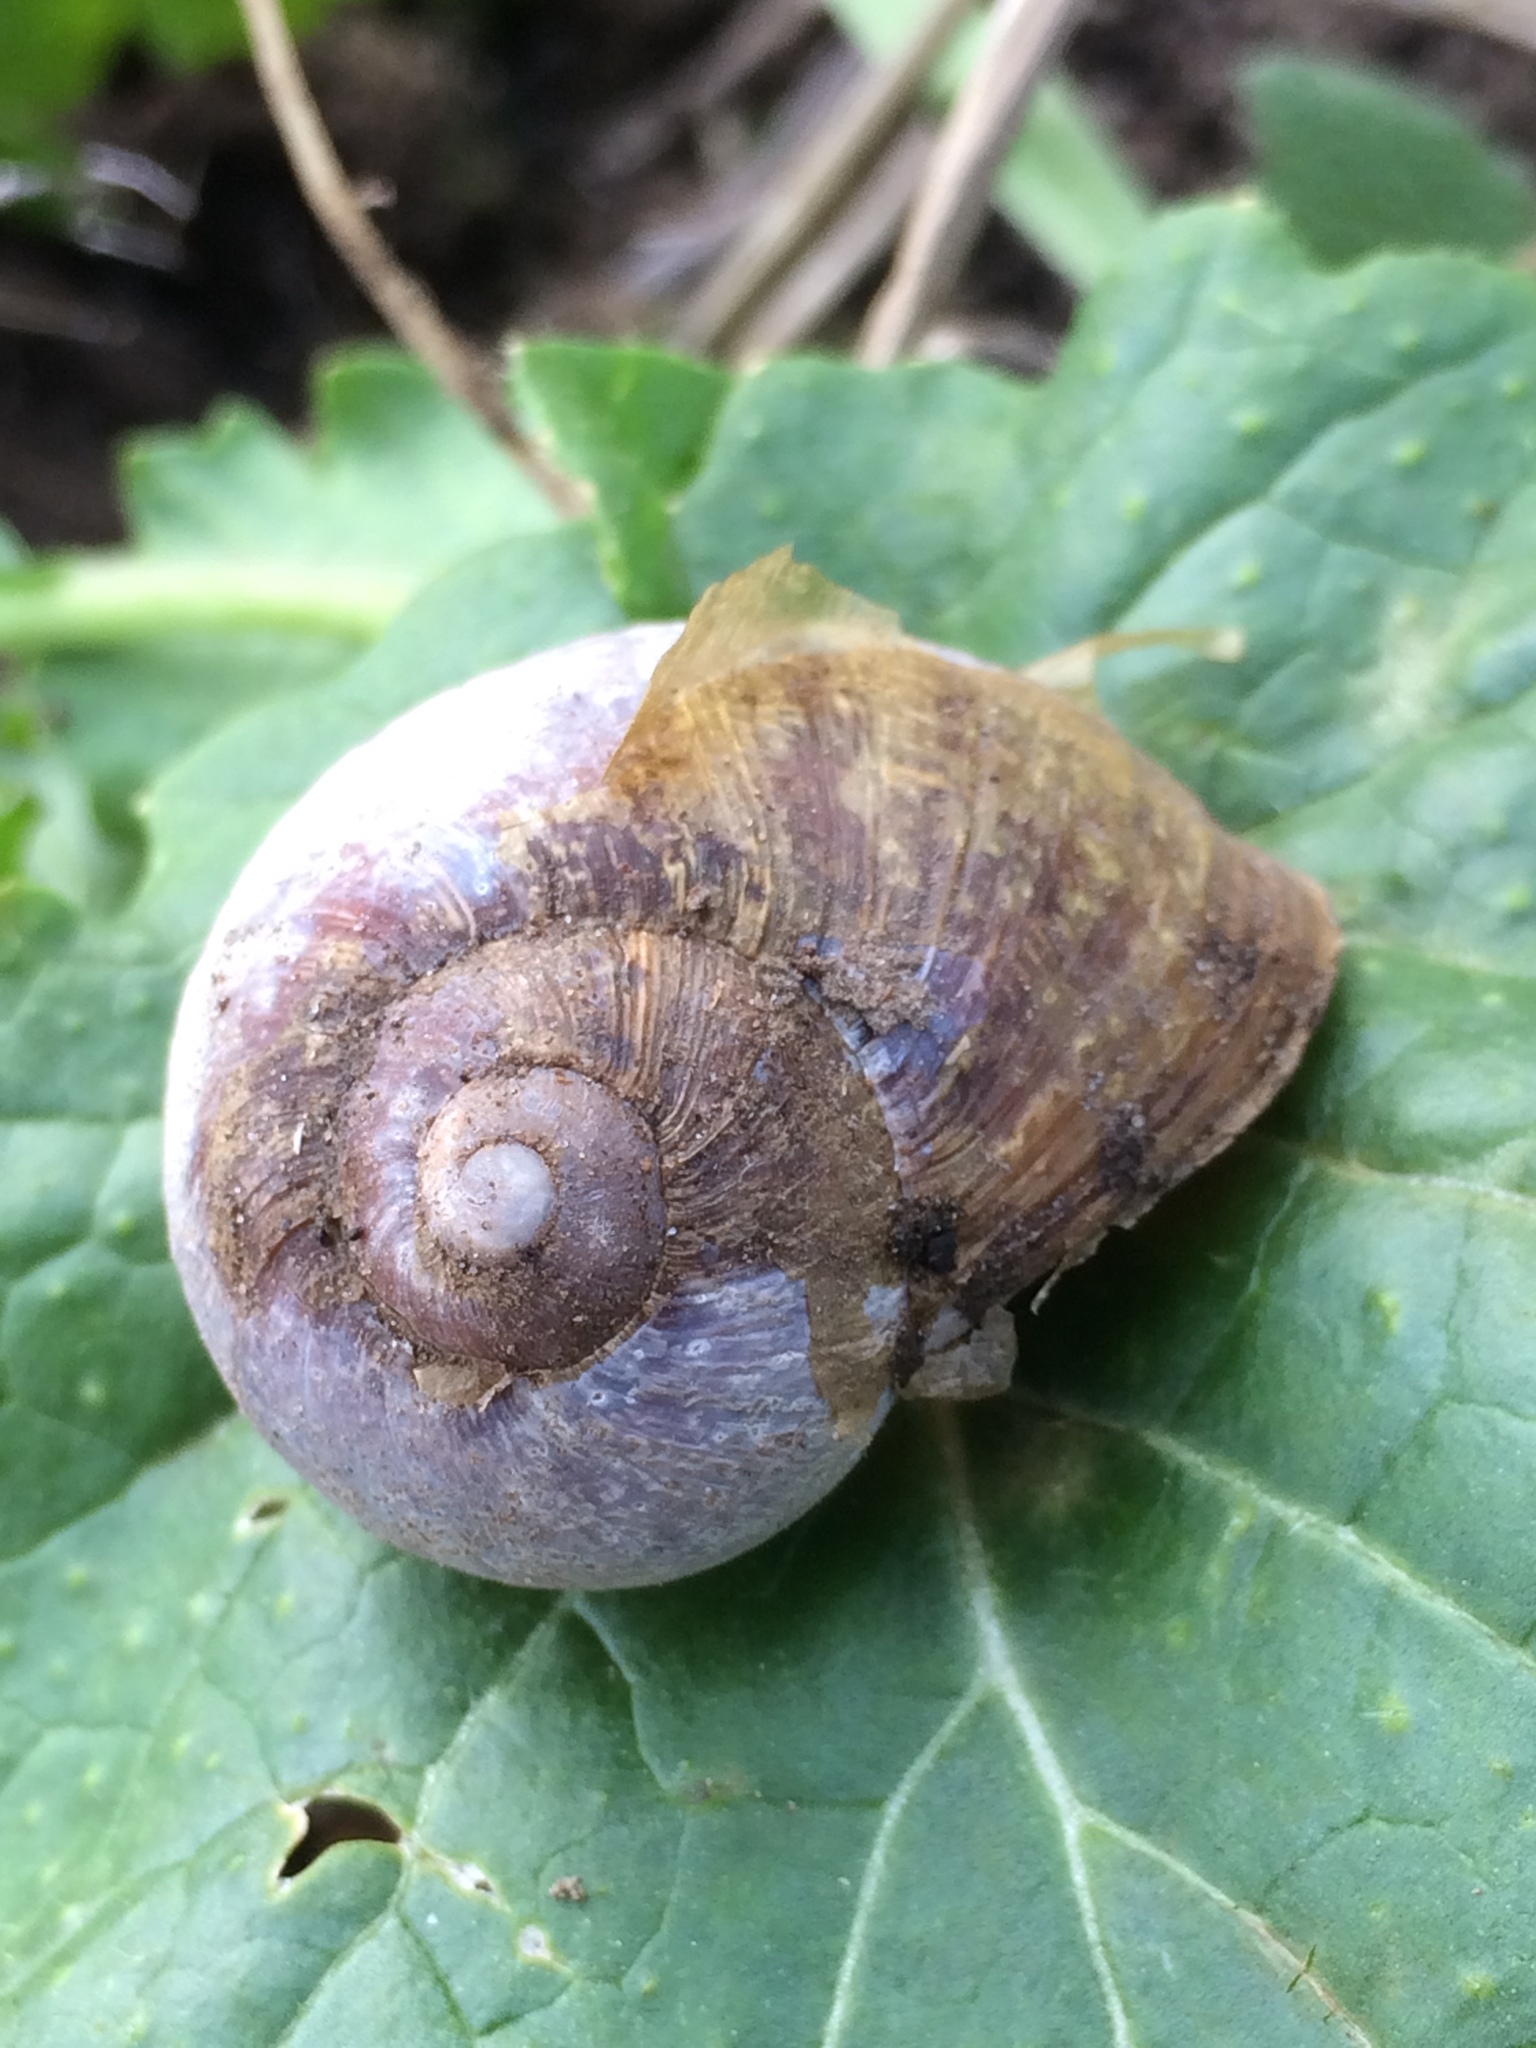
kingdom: Animalia
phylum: Mollusca
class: Gastropoda
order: Stylommatophora
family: Helicidae
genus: Cornu
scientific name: Cornu aspersum
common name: Brown garden snail
